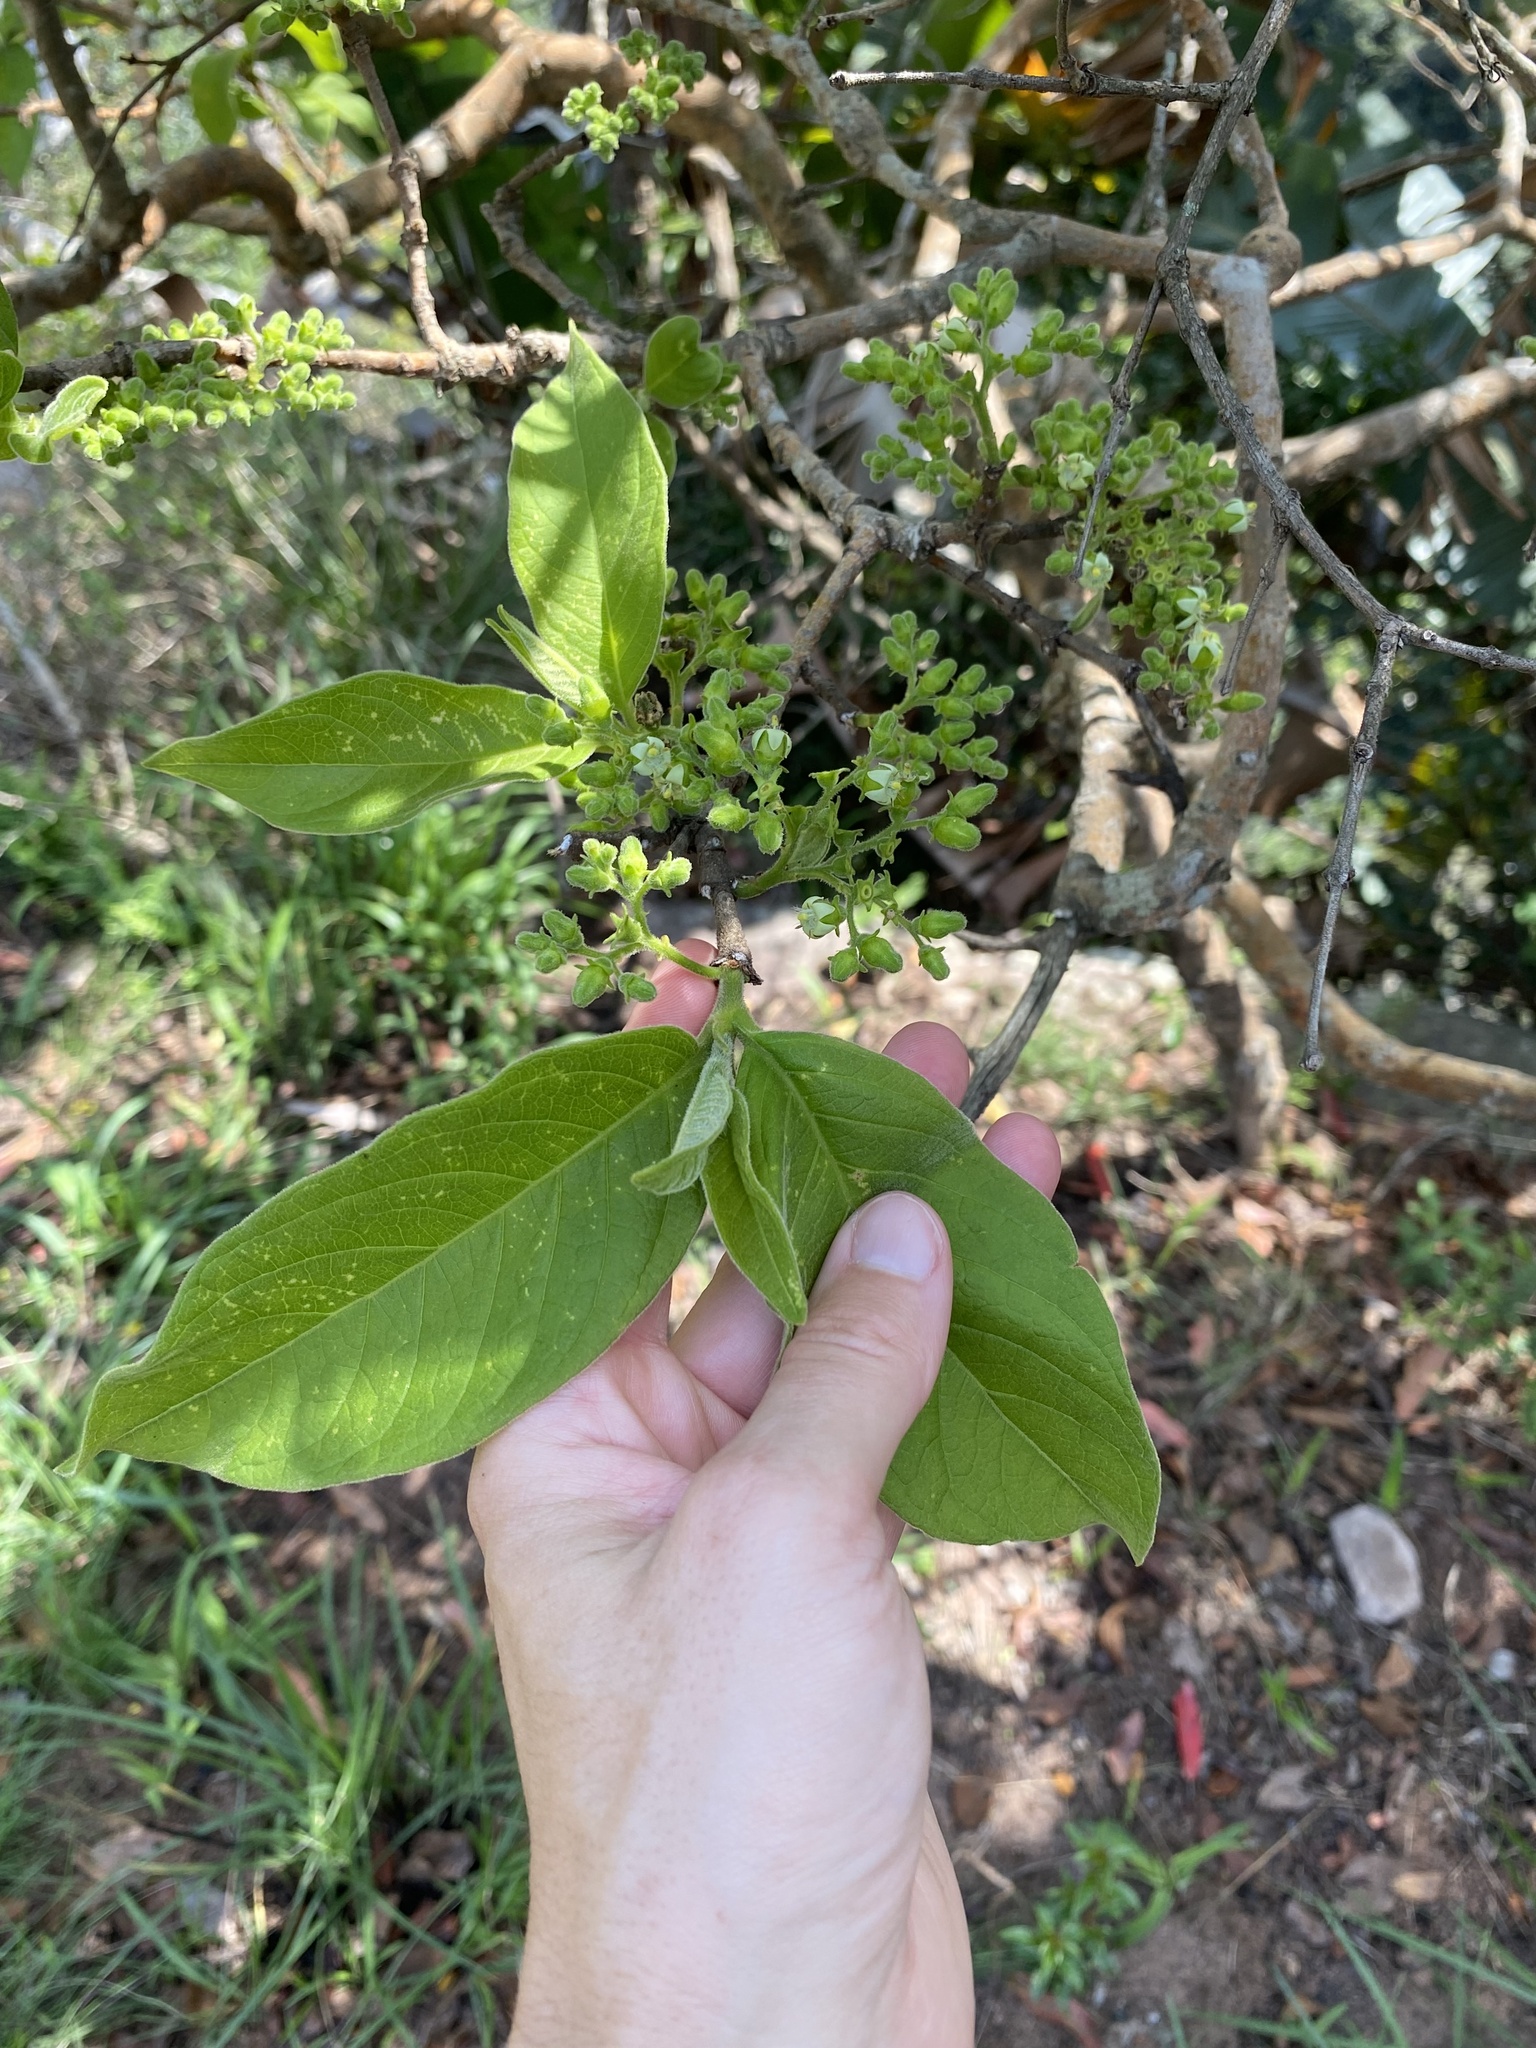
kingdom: Plantae
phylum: Tracheophyta
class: Magnoliopsida
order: Gentianales
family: Rubiaceae
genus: Vangueria
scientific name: Vangueria infausta
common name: Medlar
